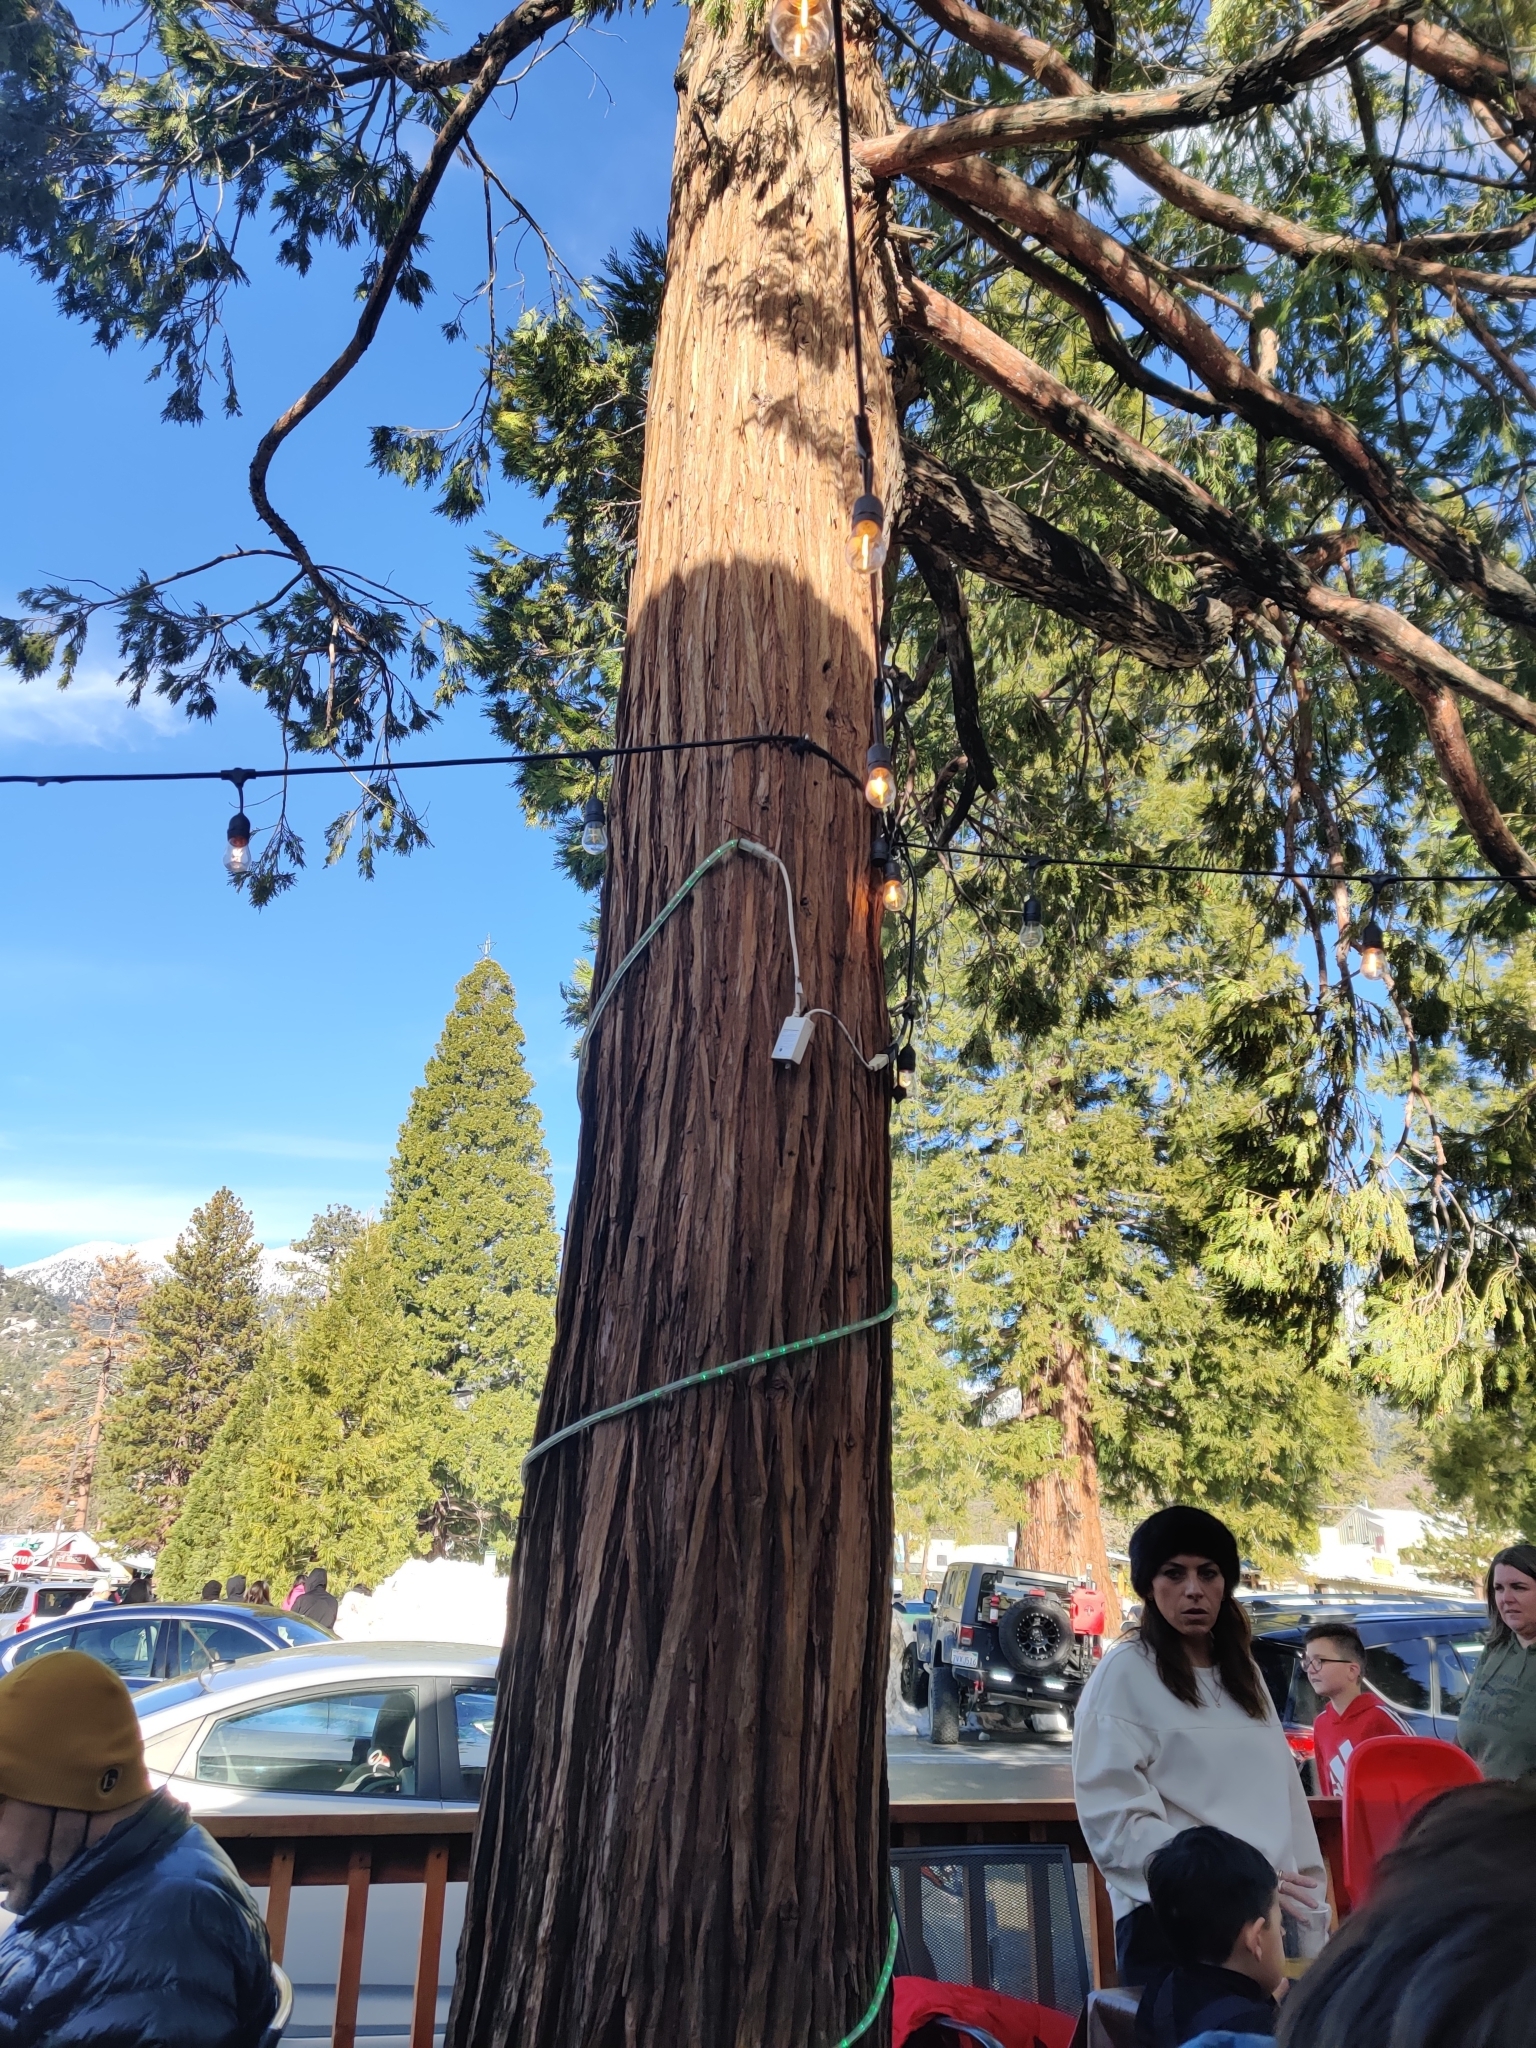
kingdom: Plantae
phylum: Tracheophyta
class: Pinopsida
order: Pinales
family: Cupressaceae
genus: Calocedrus
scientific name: Calocedrus decurrens
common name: Californian incense-cedar
